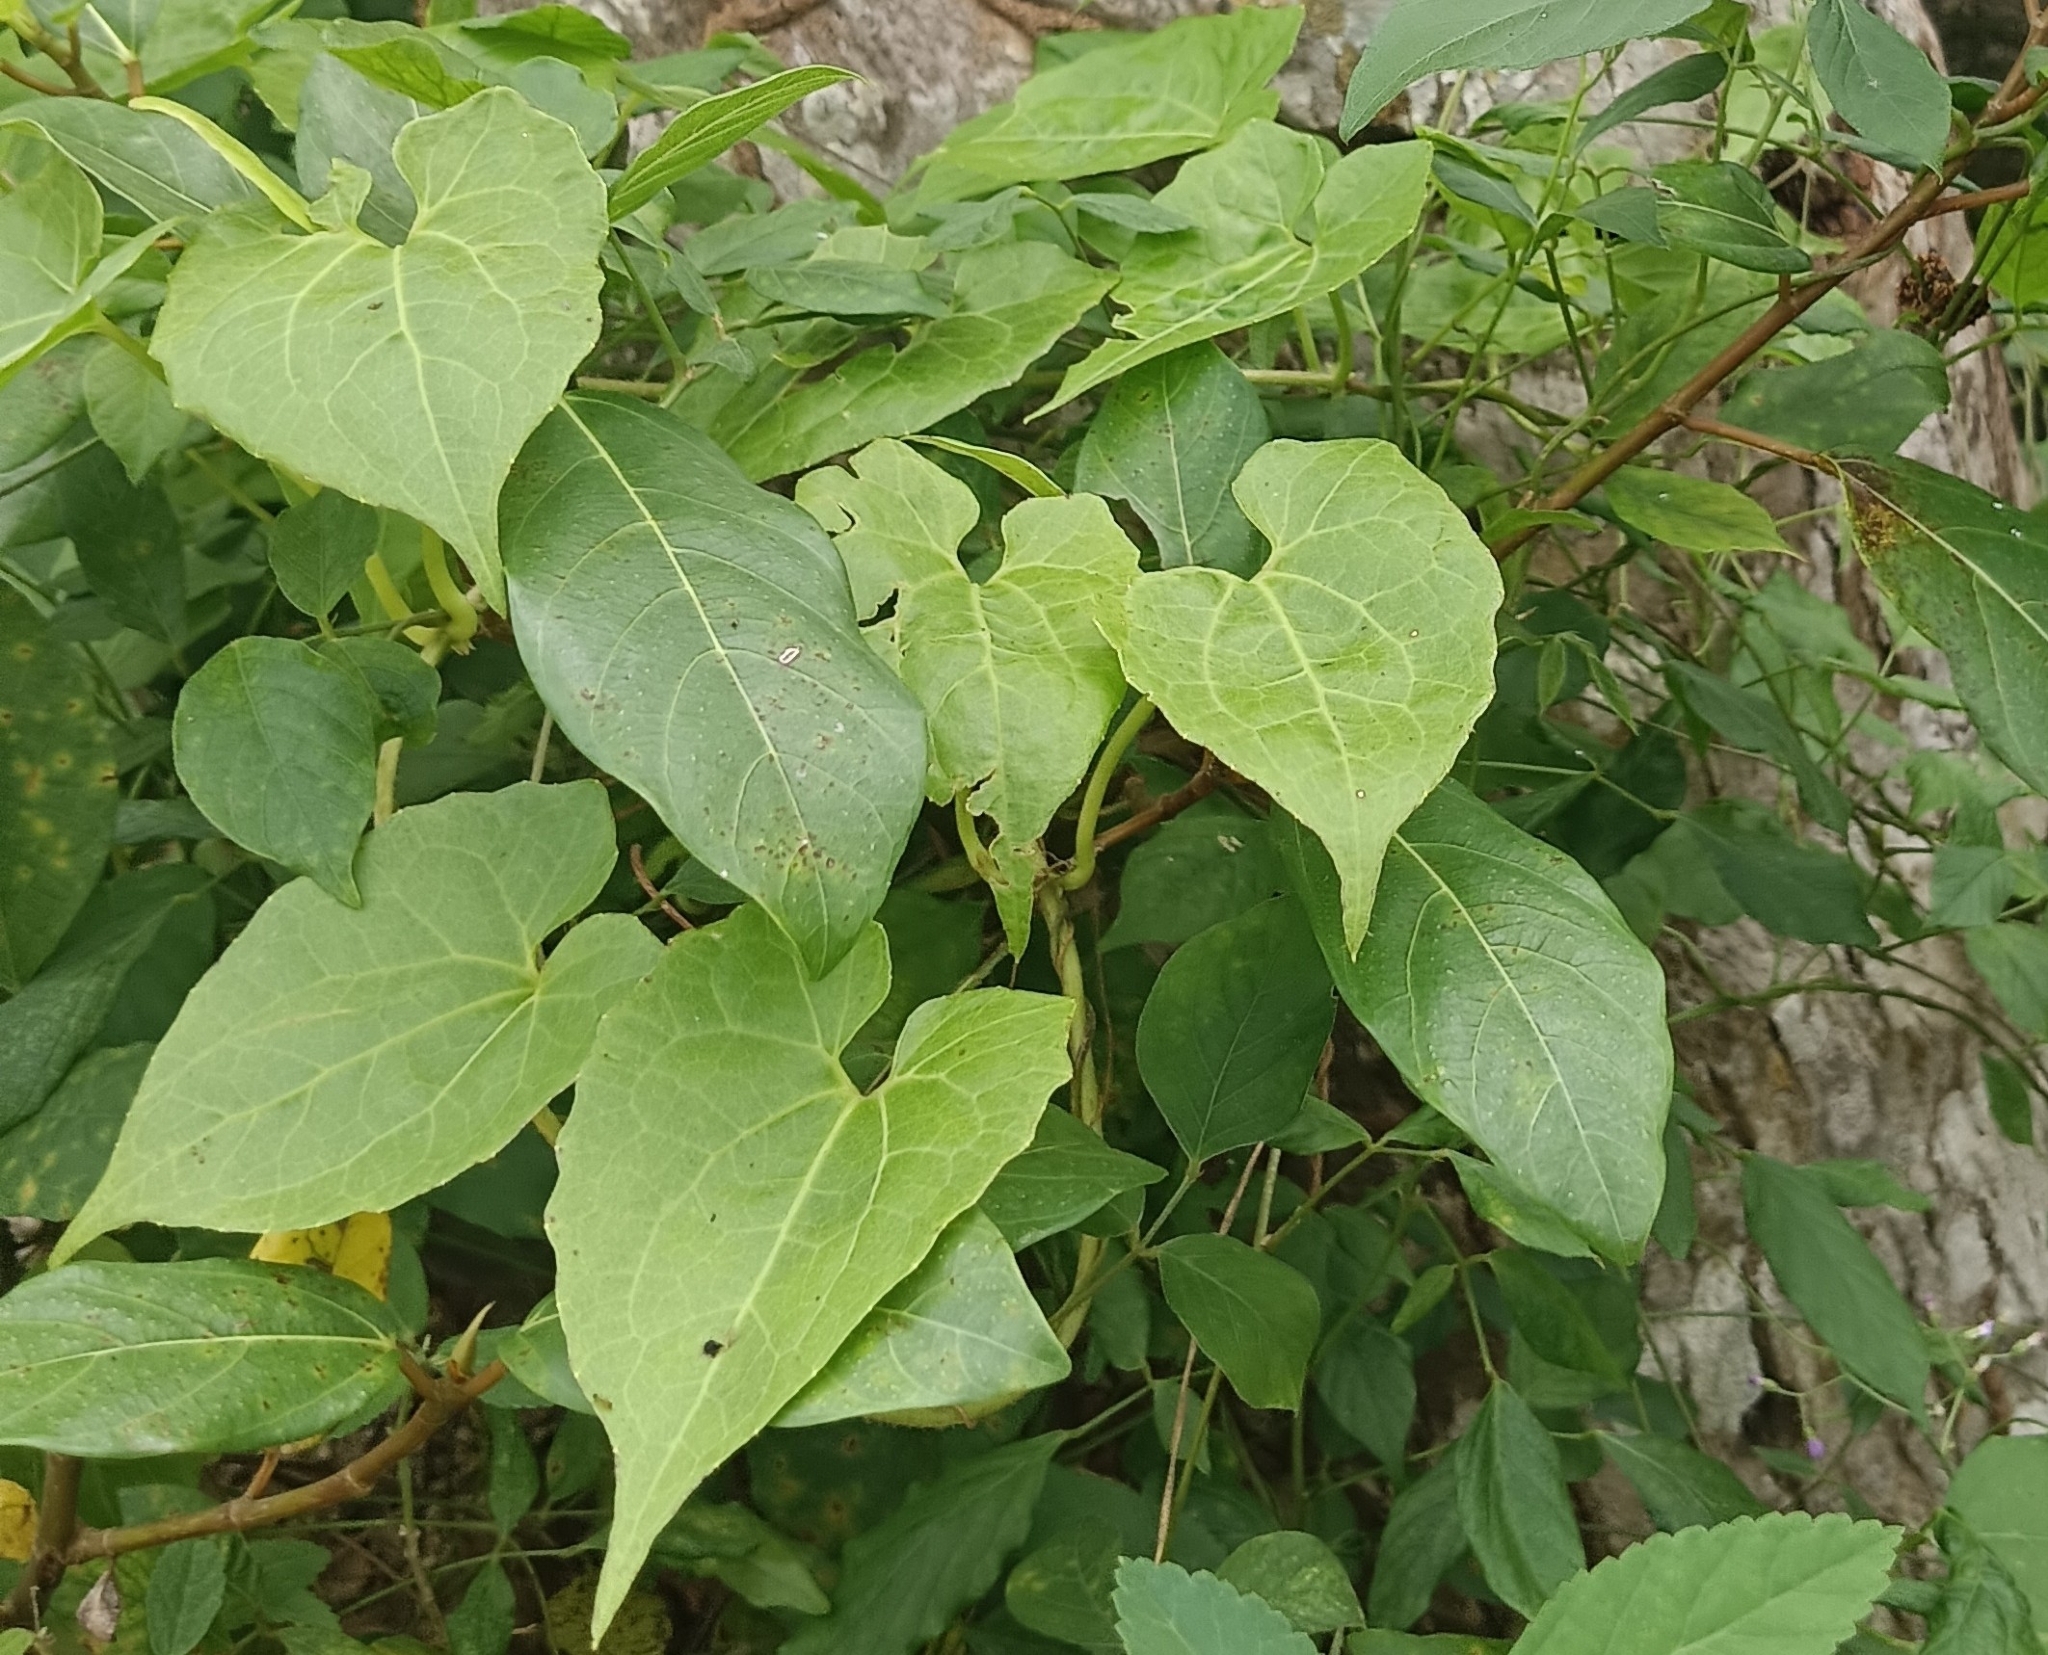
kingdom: Plantae
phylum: Tracheophyta
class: Magnoliopsida
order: Asterales
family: Asteraceae
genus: Mikania
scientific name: Mikania micrantha
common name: Mile-a-minute
